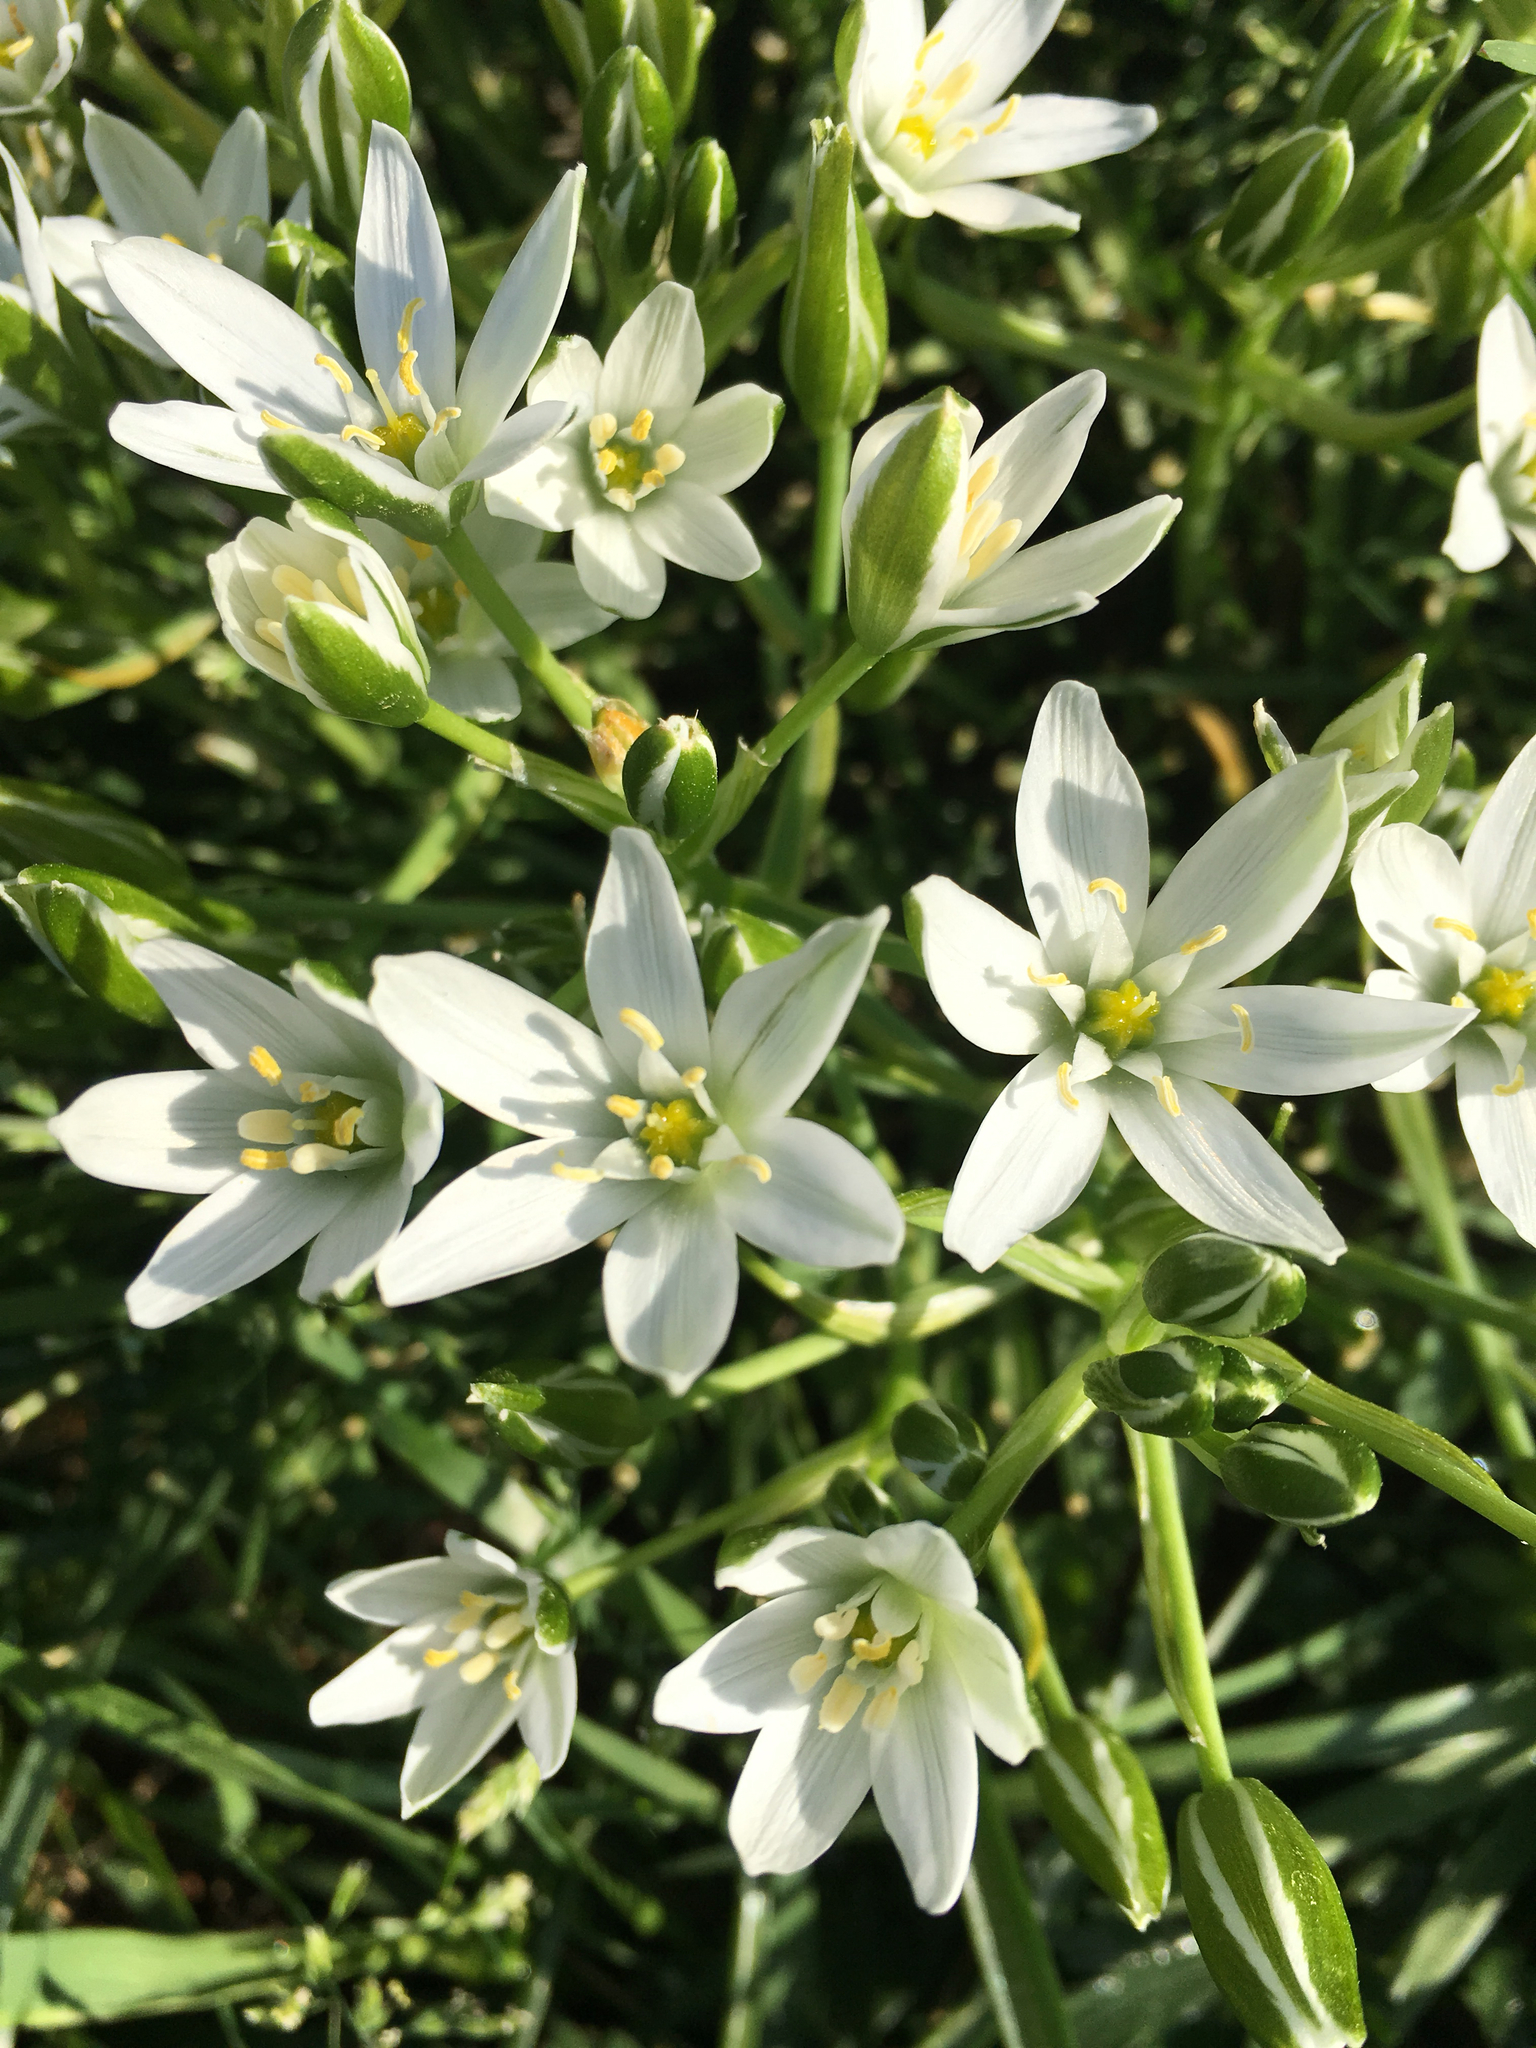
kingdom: Plantae
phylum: Tracheophyta
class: Liliopsida
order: Asparagales
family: Asparagaceae
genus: Ornithogalum
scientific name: Ornithogalum umbellatum
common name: Garden star-of-bethlehem
